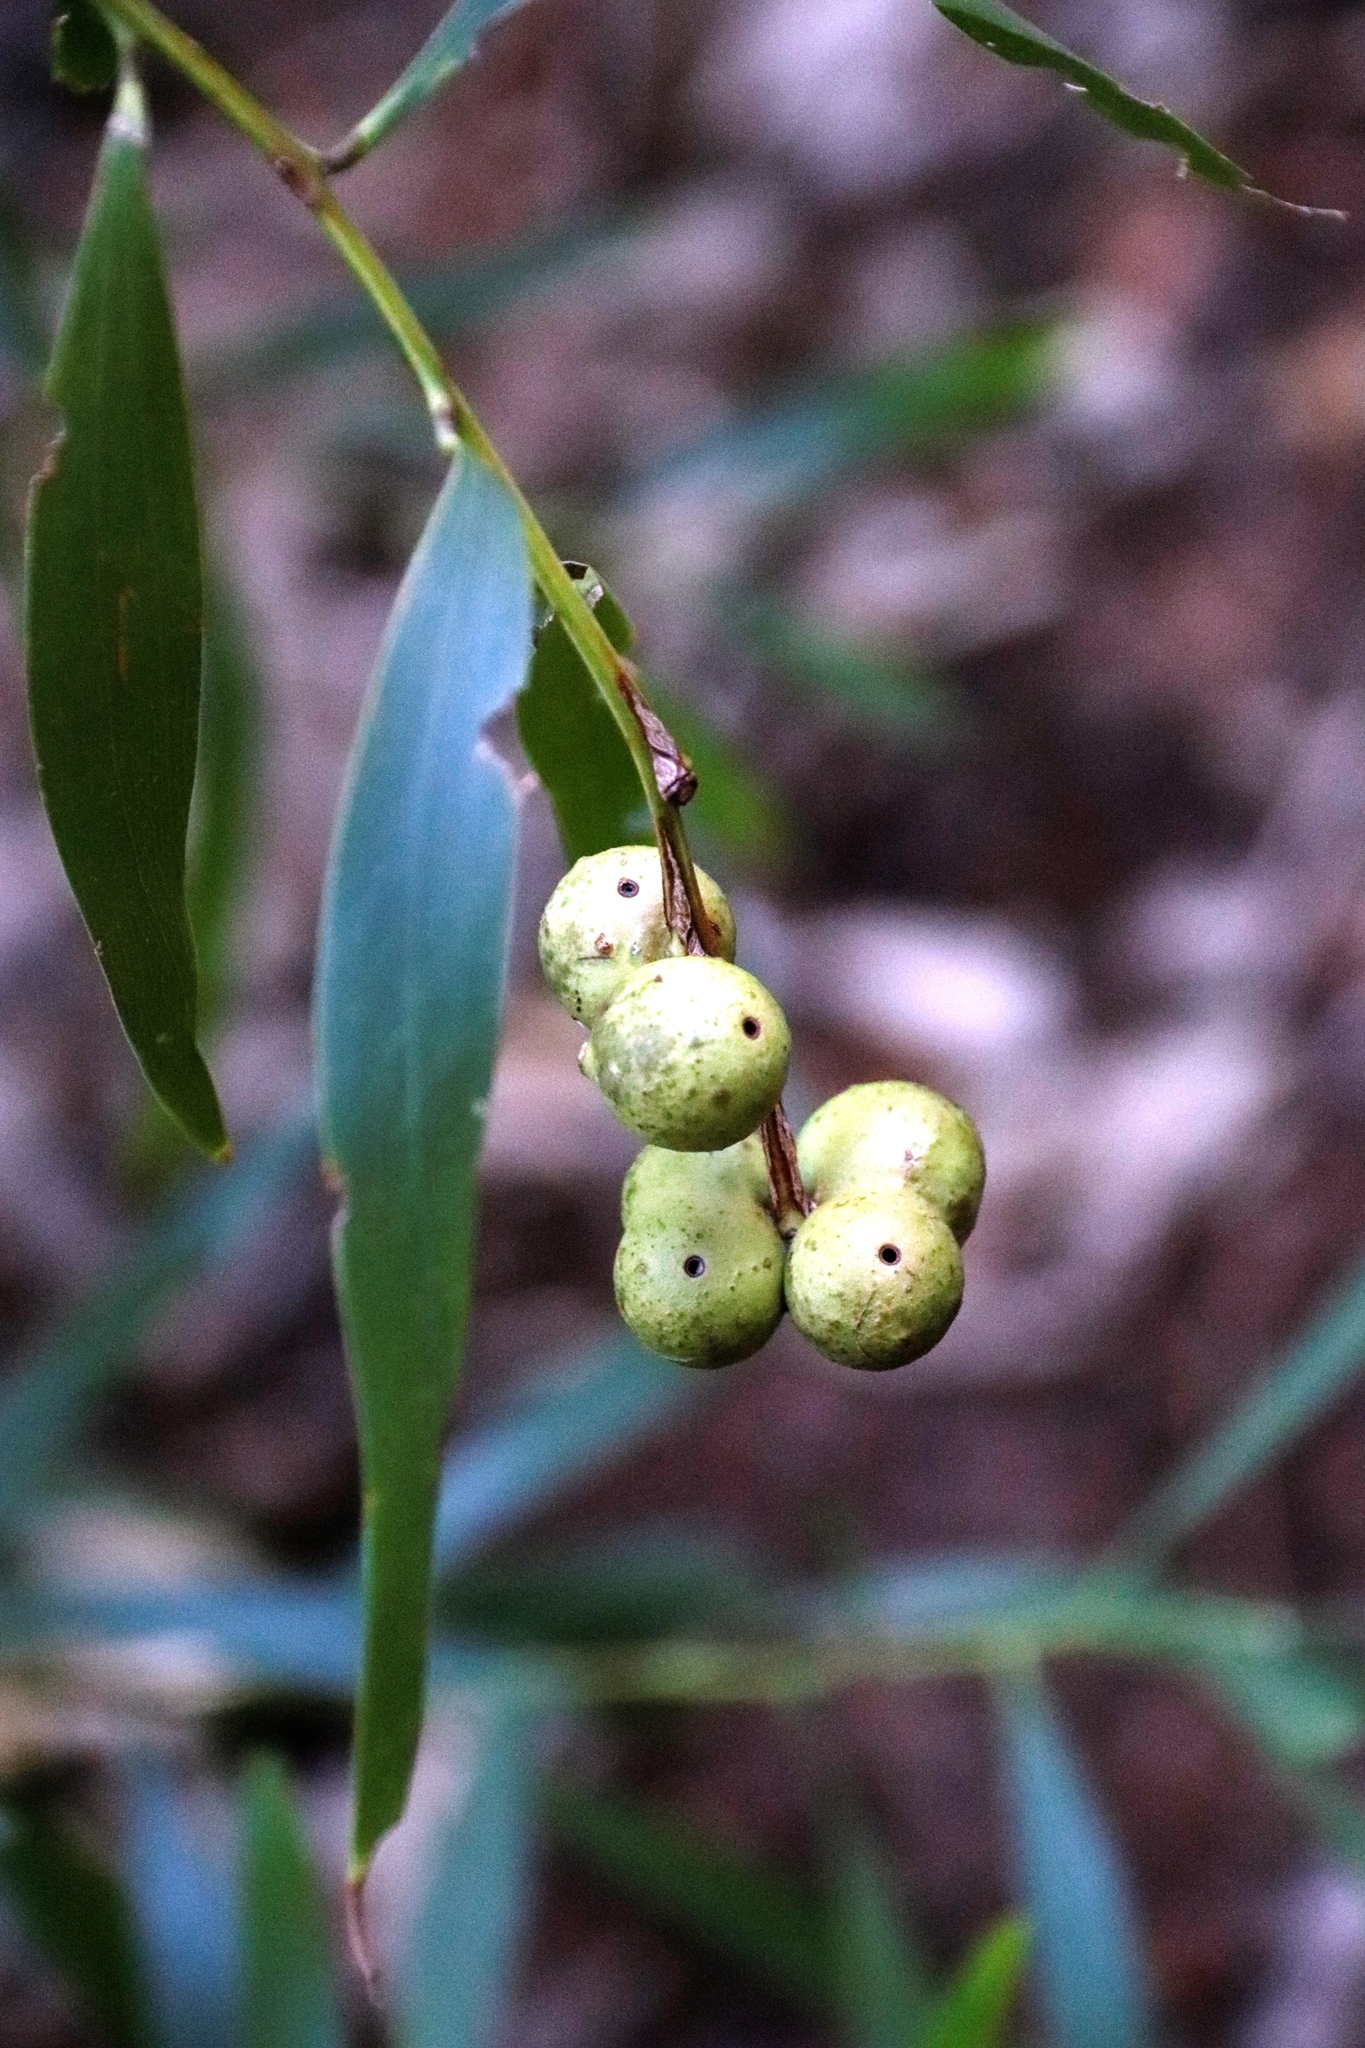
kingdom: Animalia
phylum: Arthropoda
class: Insecta
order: Hymenoptera
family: Pteromalidae
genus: Trichilogaster
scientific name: Trichilogaster acaciaelongifoliae
